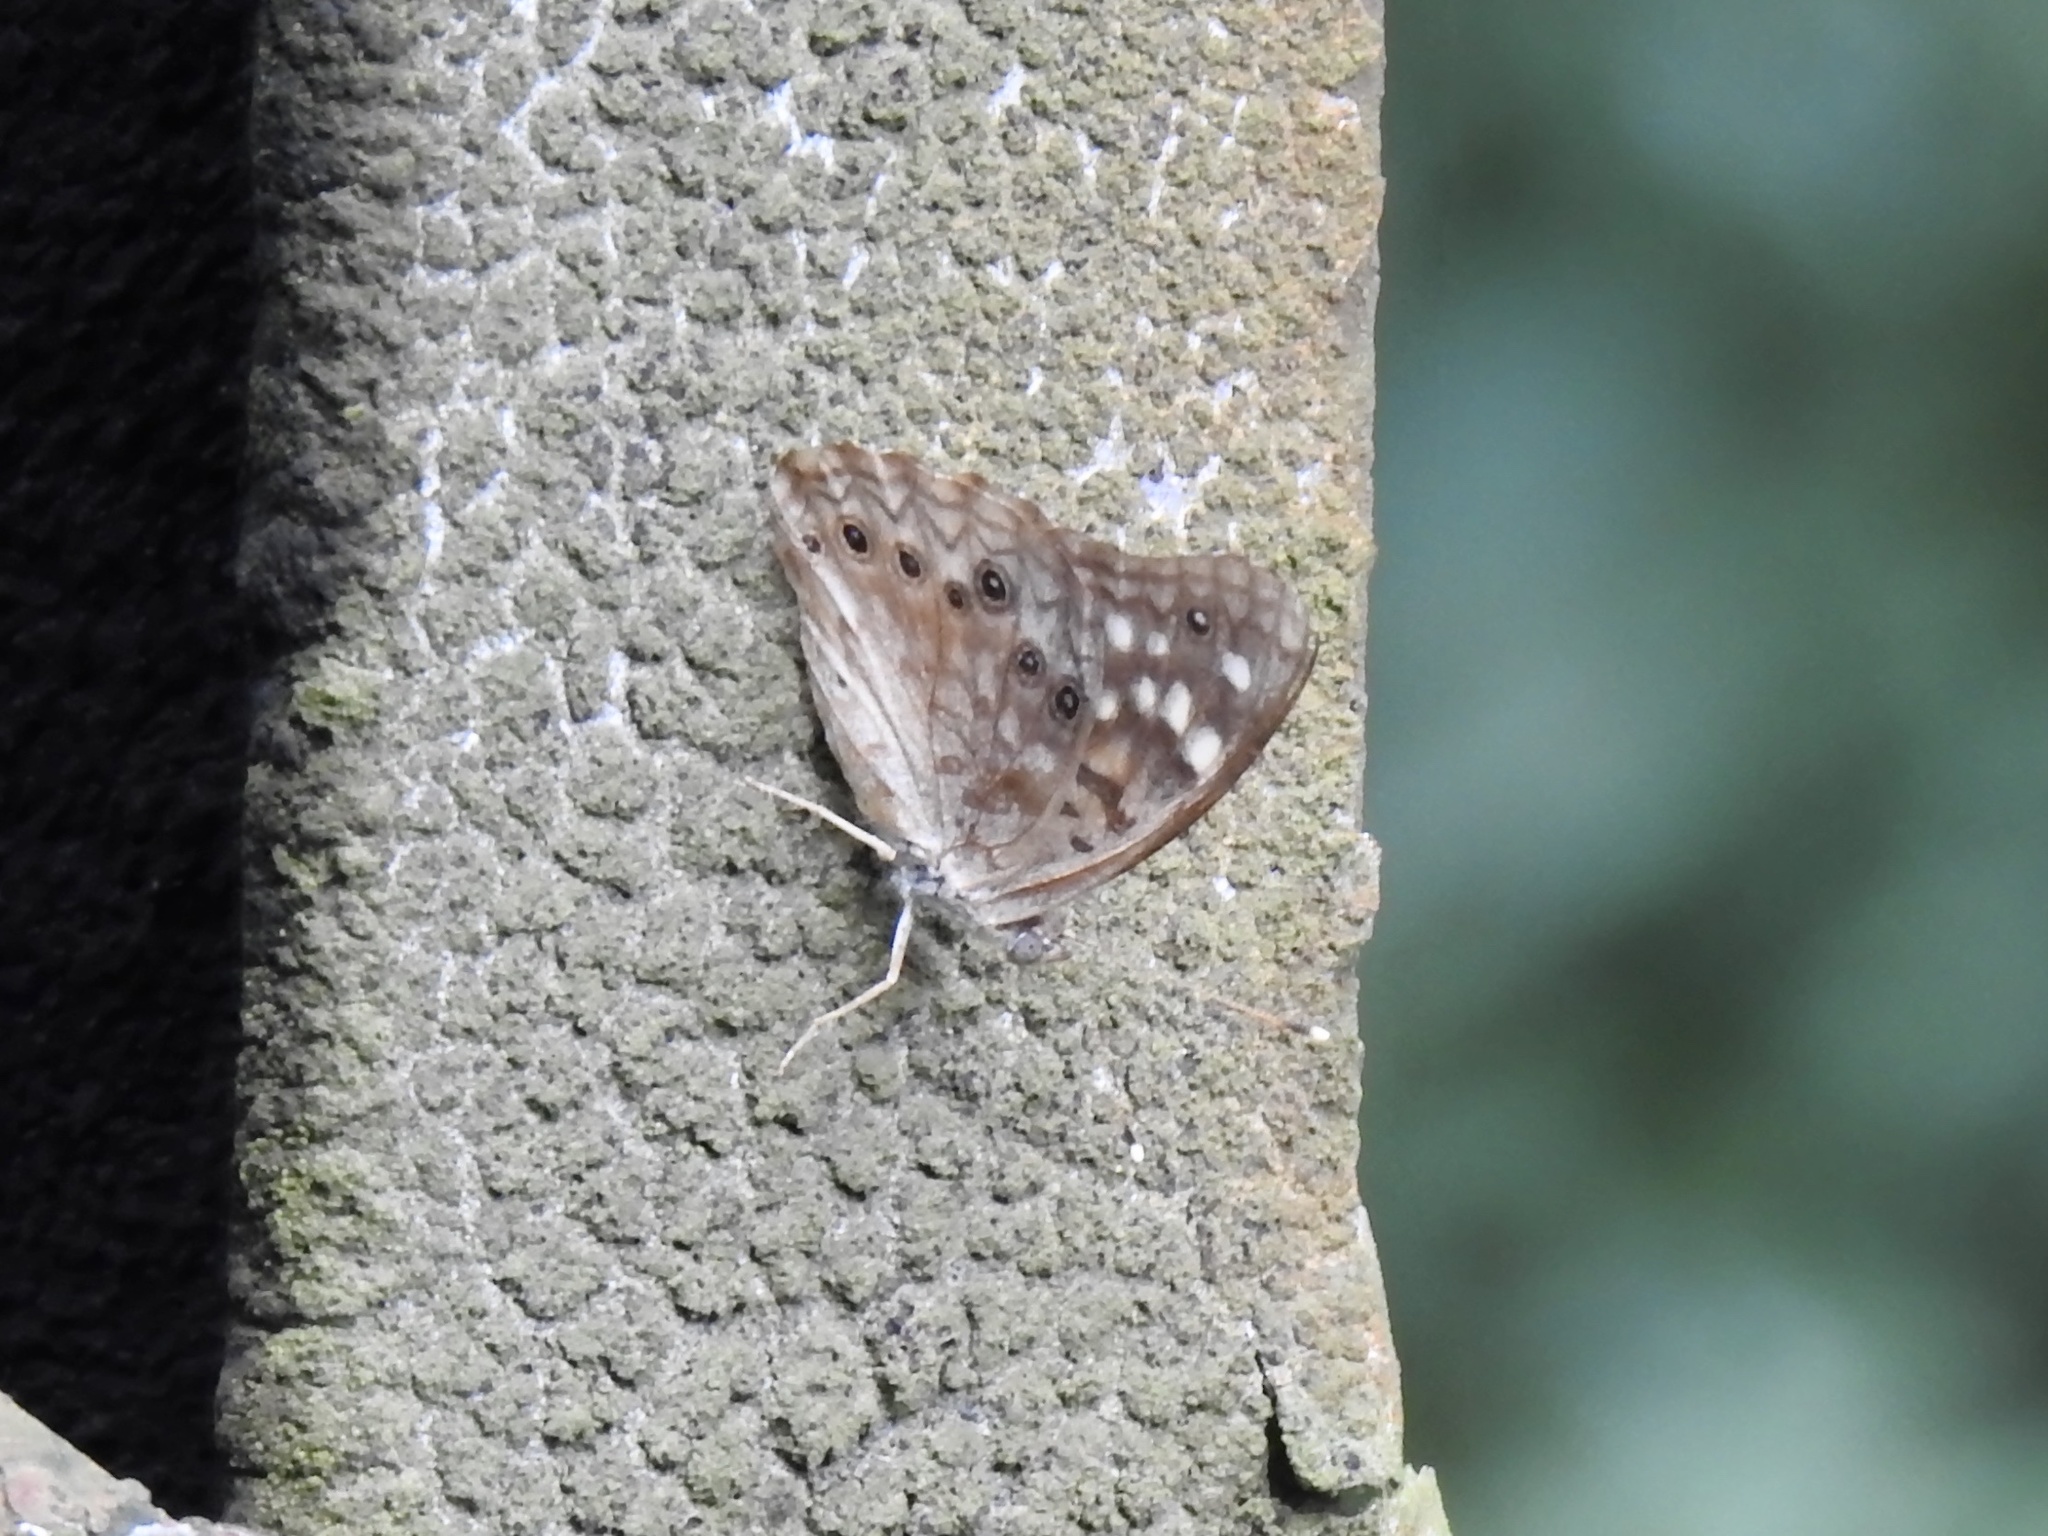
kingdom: Animalia
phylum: Arthropoda
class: Insecta
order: Lepidoptera
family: Nymphalidae
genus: Asterocampa
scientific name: Asterocampa celtis
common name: Hackberry emperor
